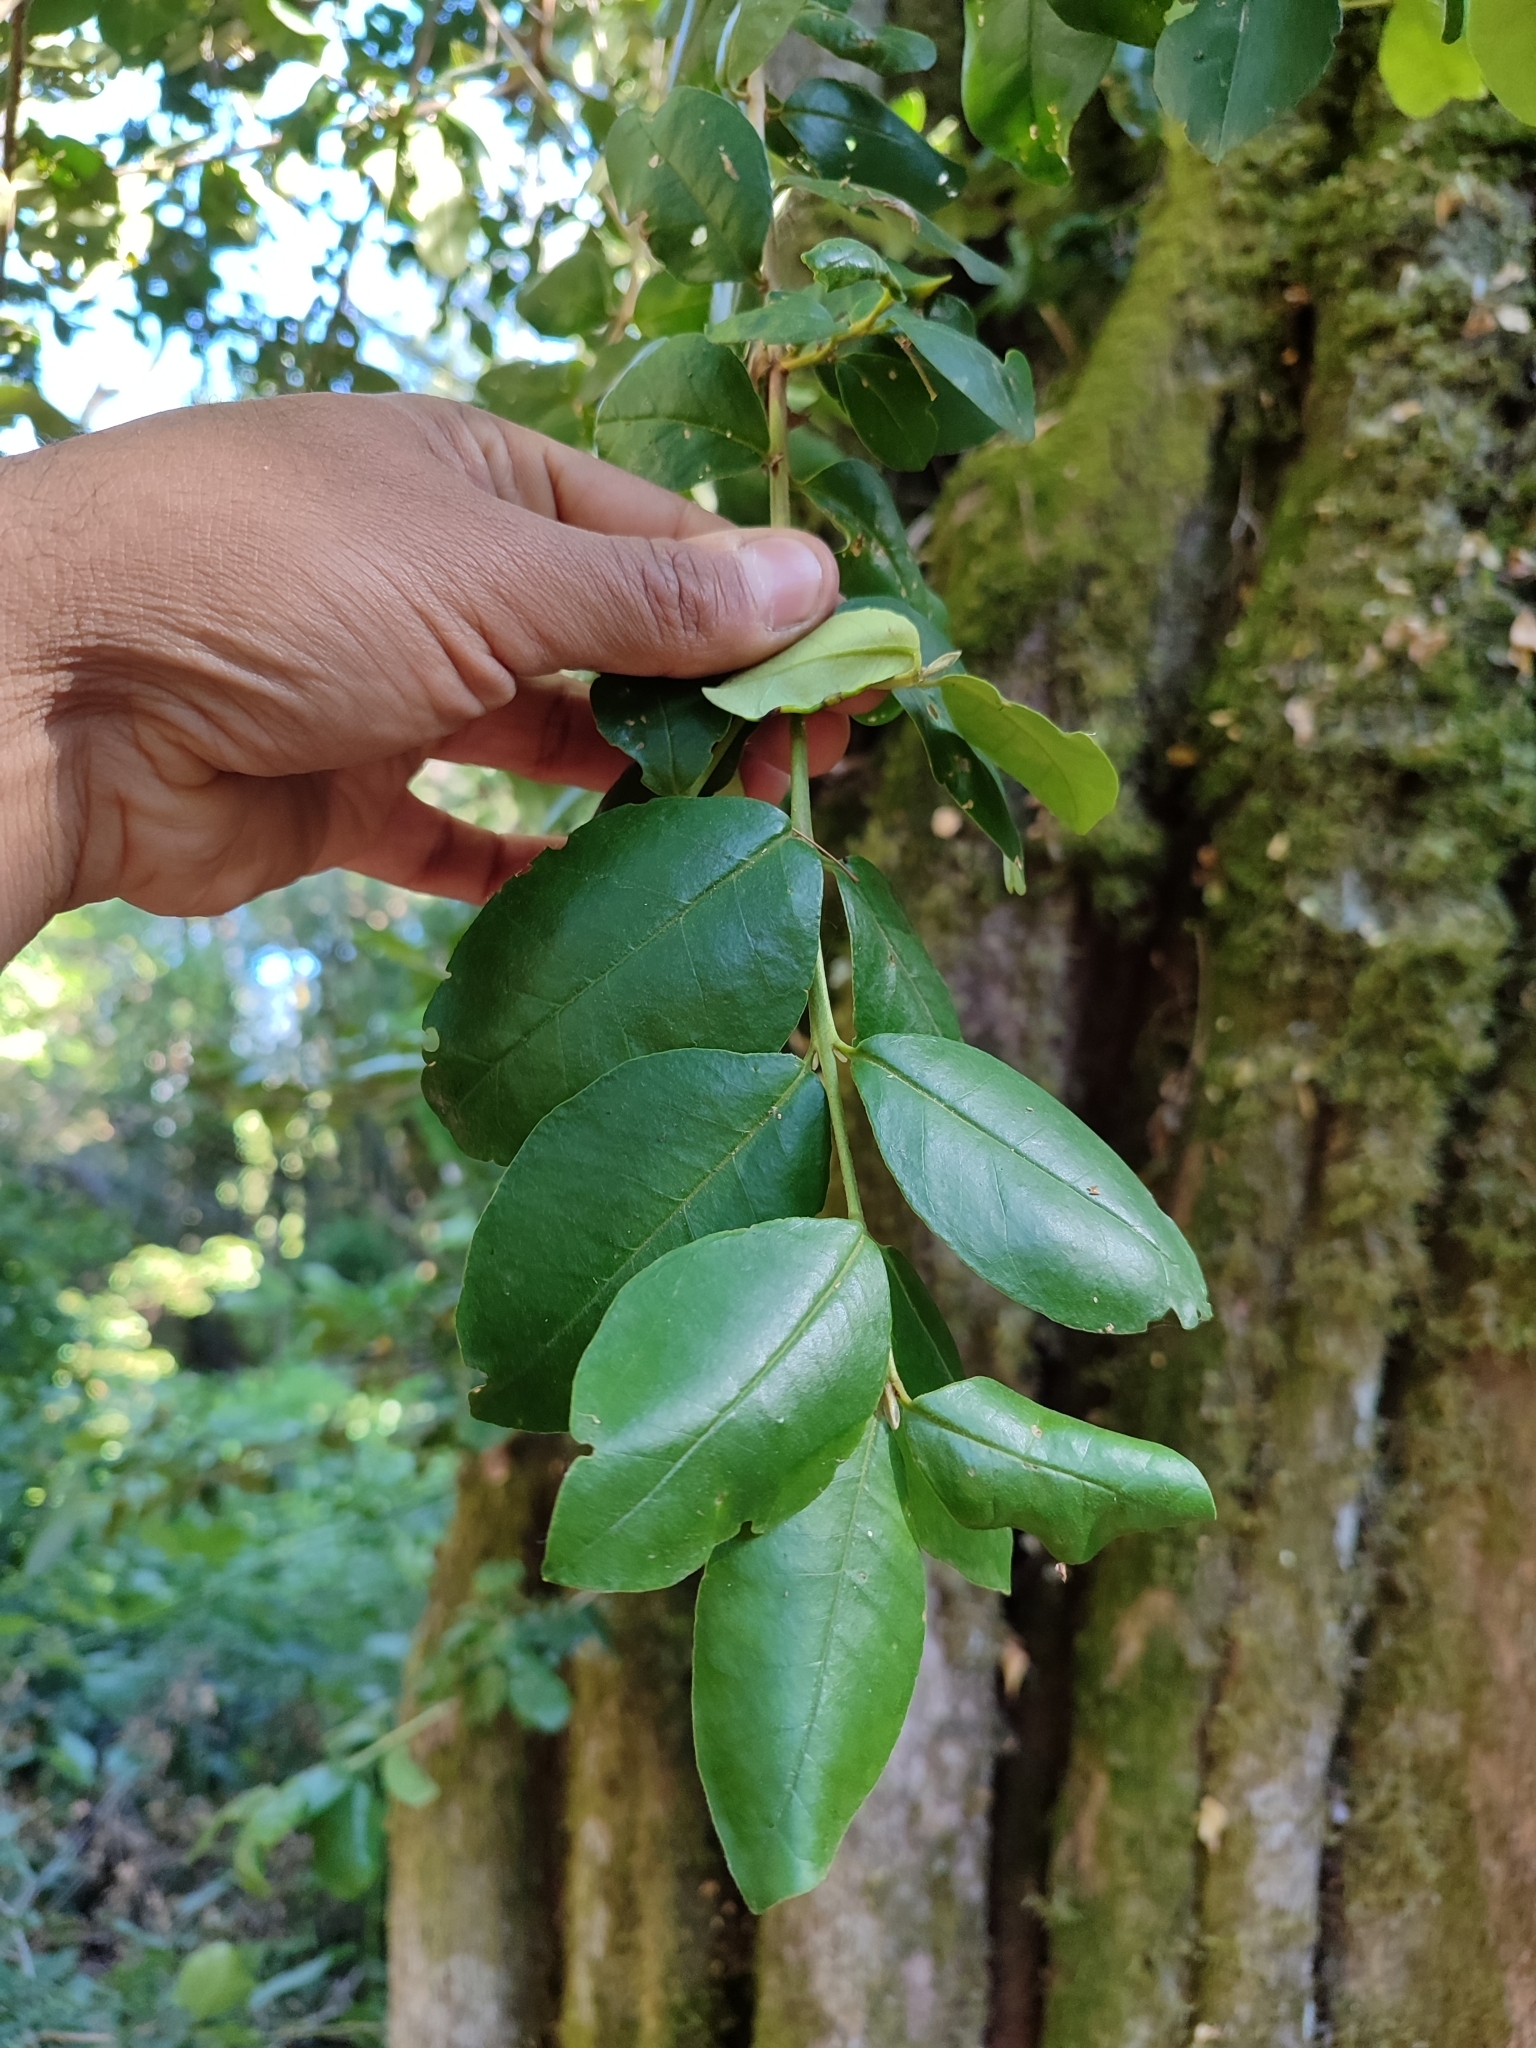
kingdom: Plantae
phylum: Tracheophyta
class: Magnoliopsida
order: Myrtales
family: Myrtaceae
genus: Myrceugenia
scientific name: Myrceugenia exsucca
